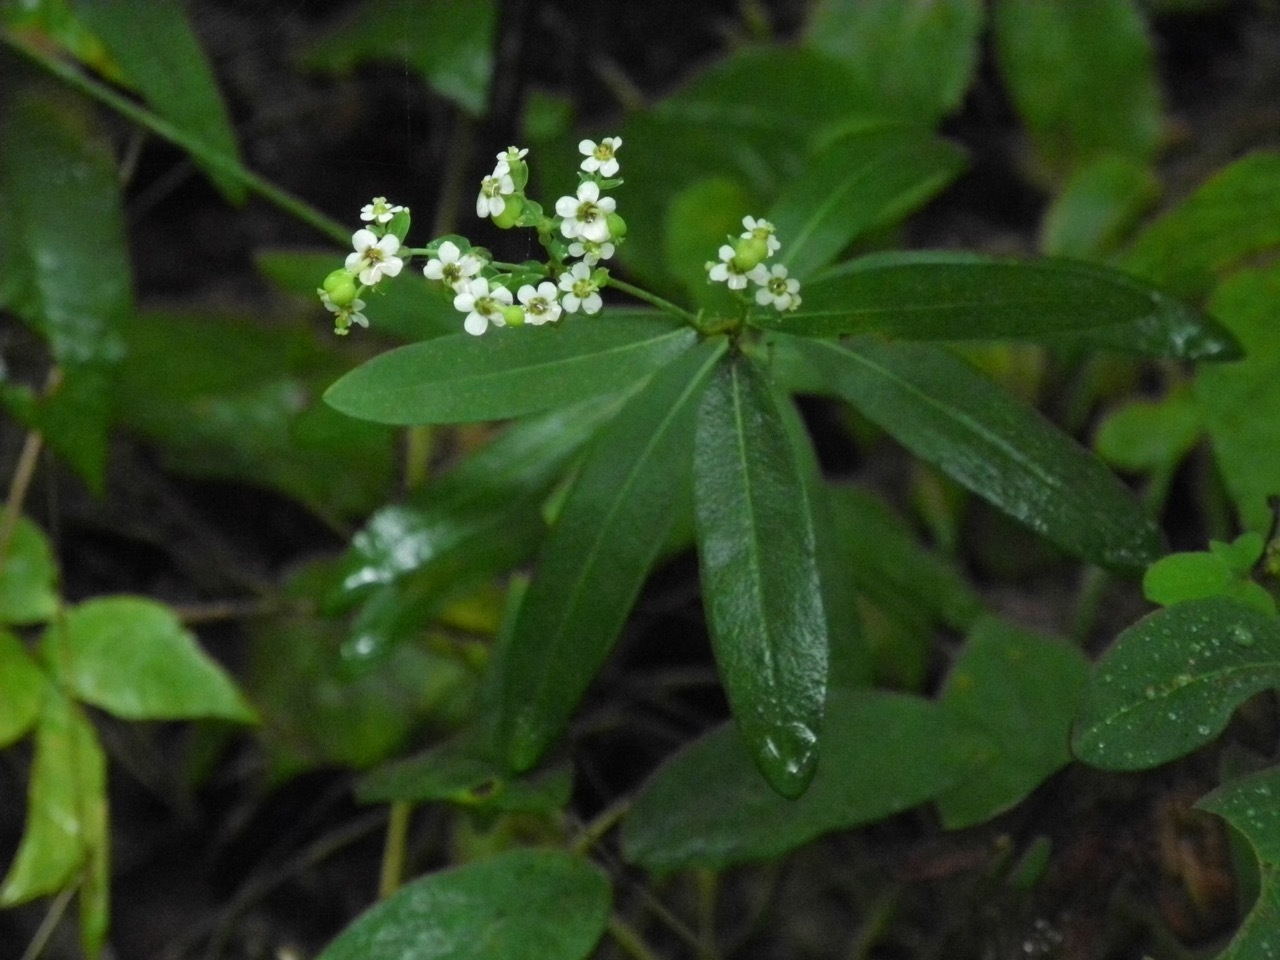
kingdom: Plantae
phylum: Tracheophyta
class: Magnoliopsida
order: Malpighiales
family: Euphorbiaceae
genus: Euphorbia
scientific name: Euphorbia corollata
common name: Flowering spurge
